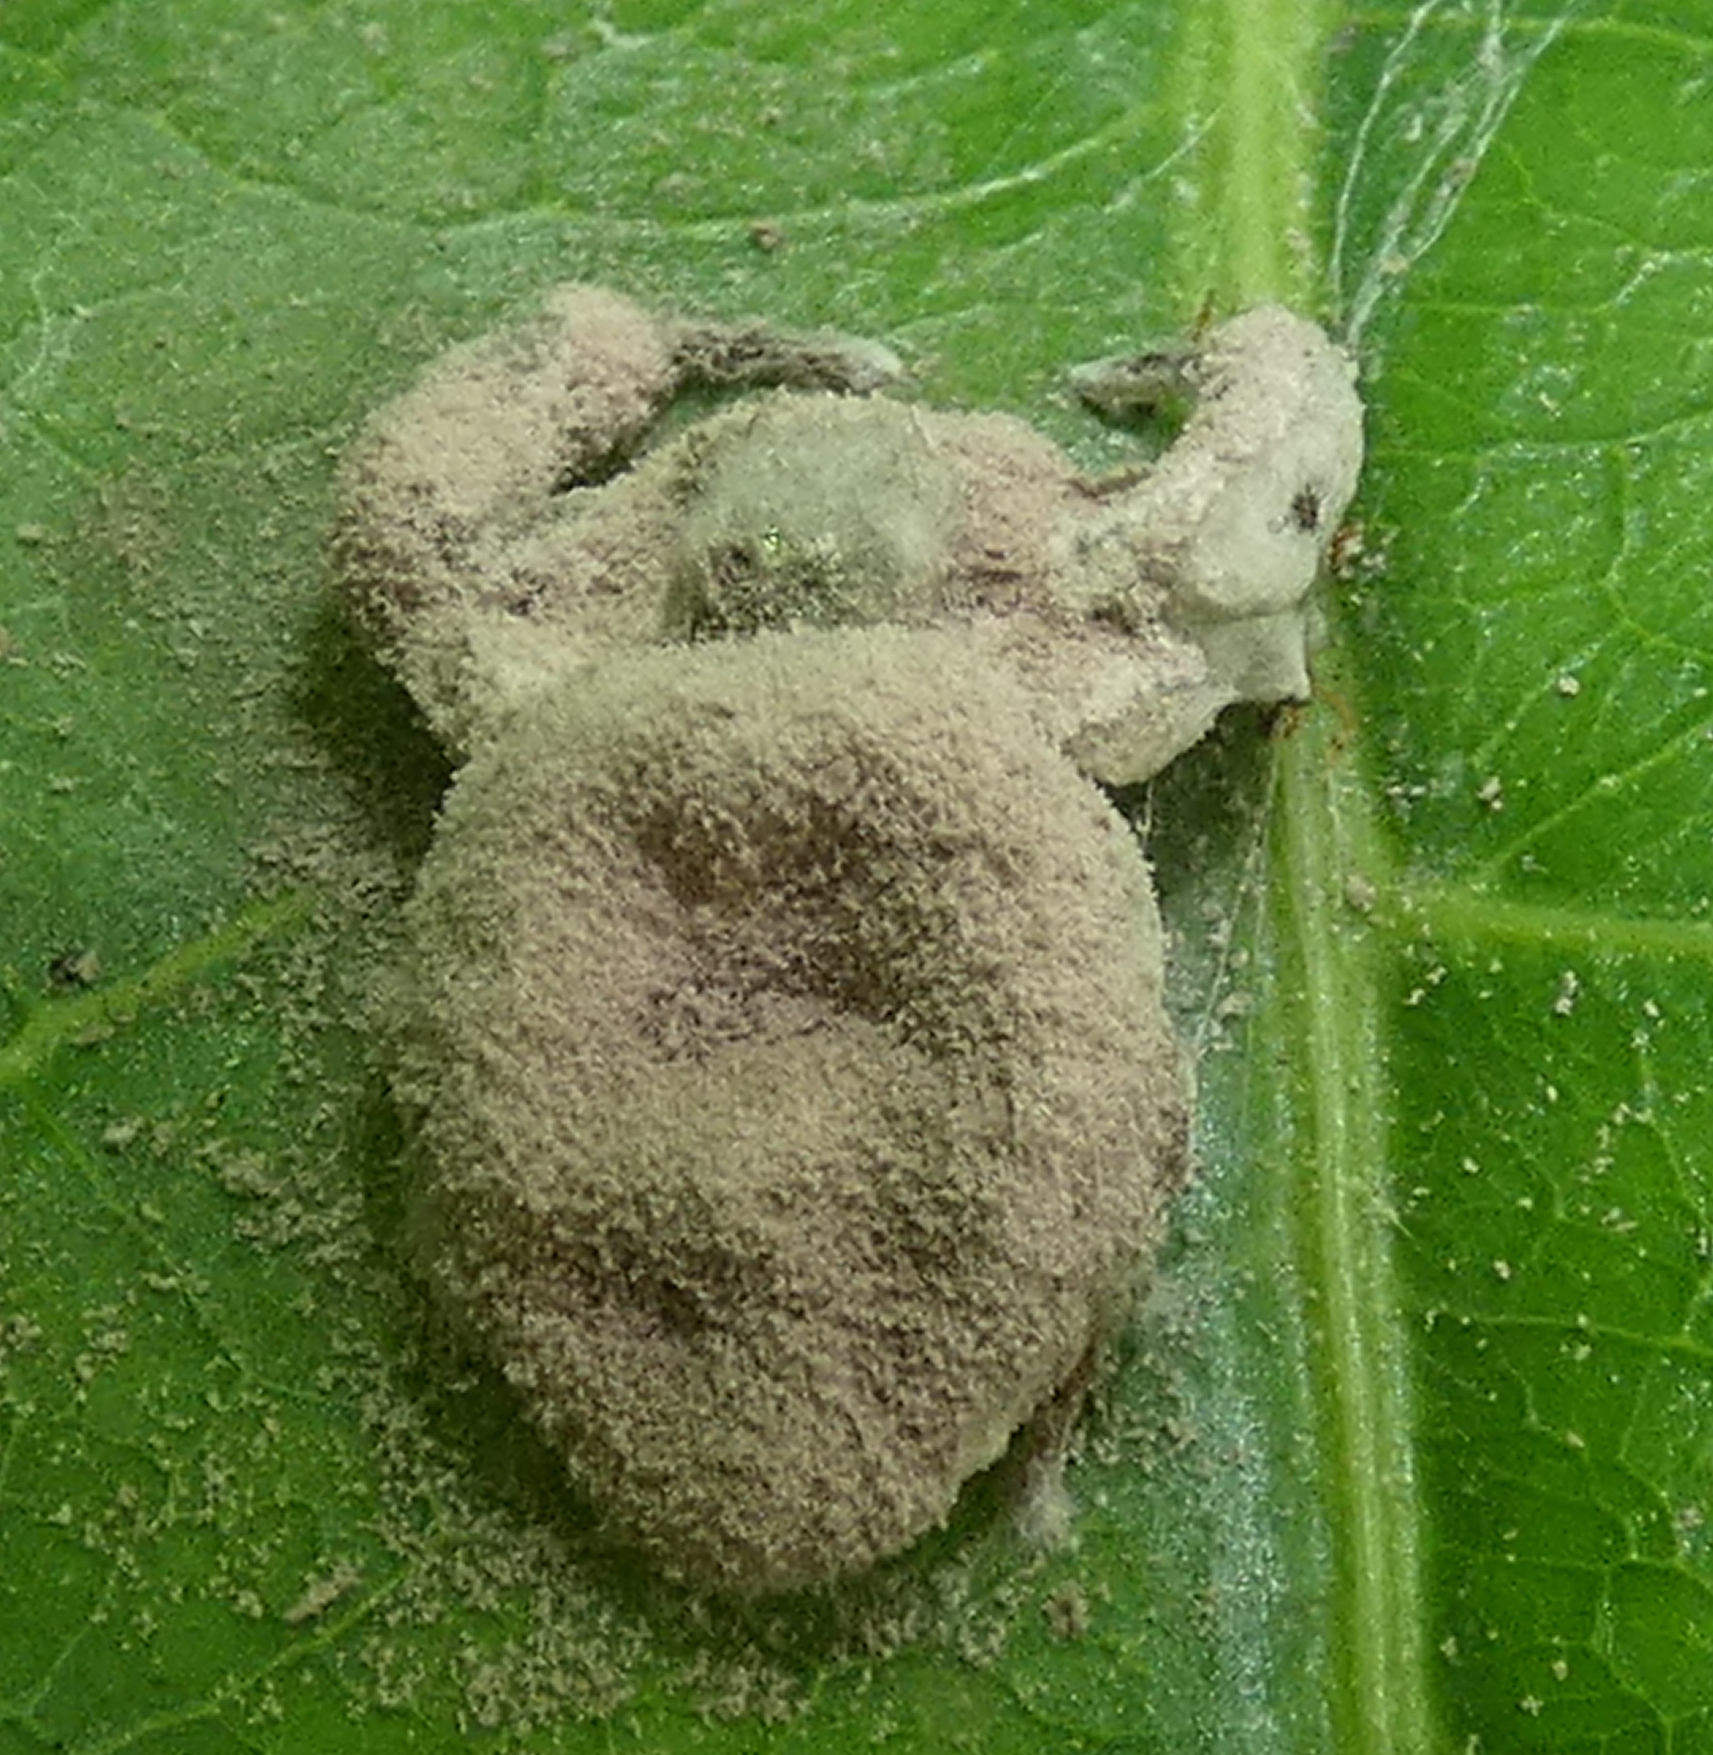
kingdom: Fungi
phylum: Ascomycota
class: Sordariomycetes
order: Hypocreales
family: Ophiocordycipitaceae
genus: Purpureocillium
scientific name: Purpureocillium atypicola
